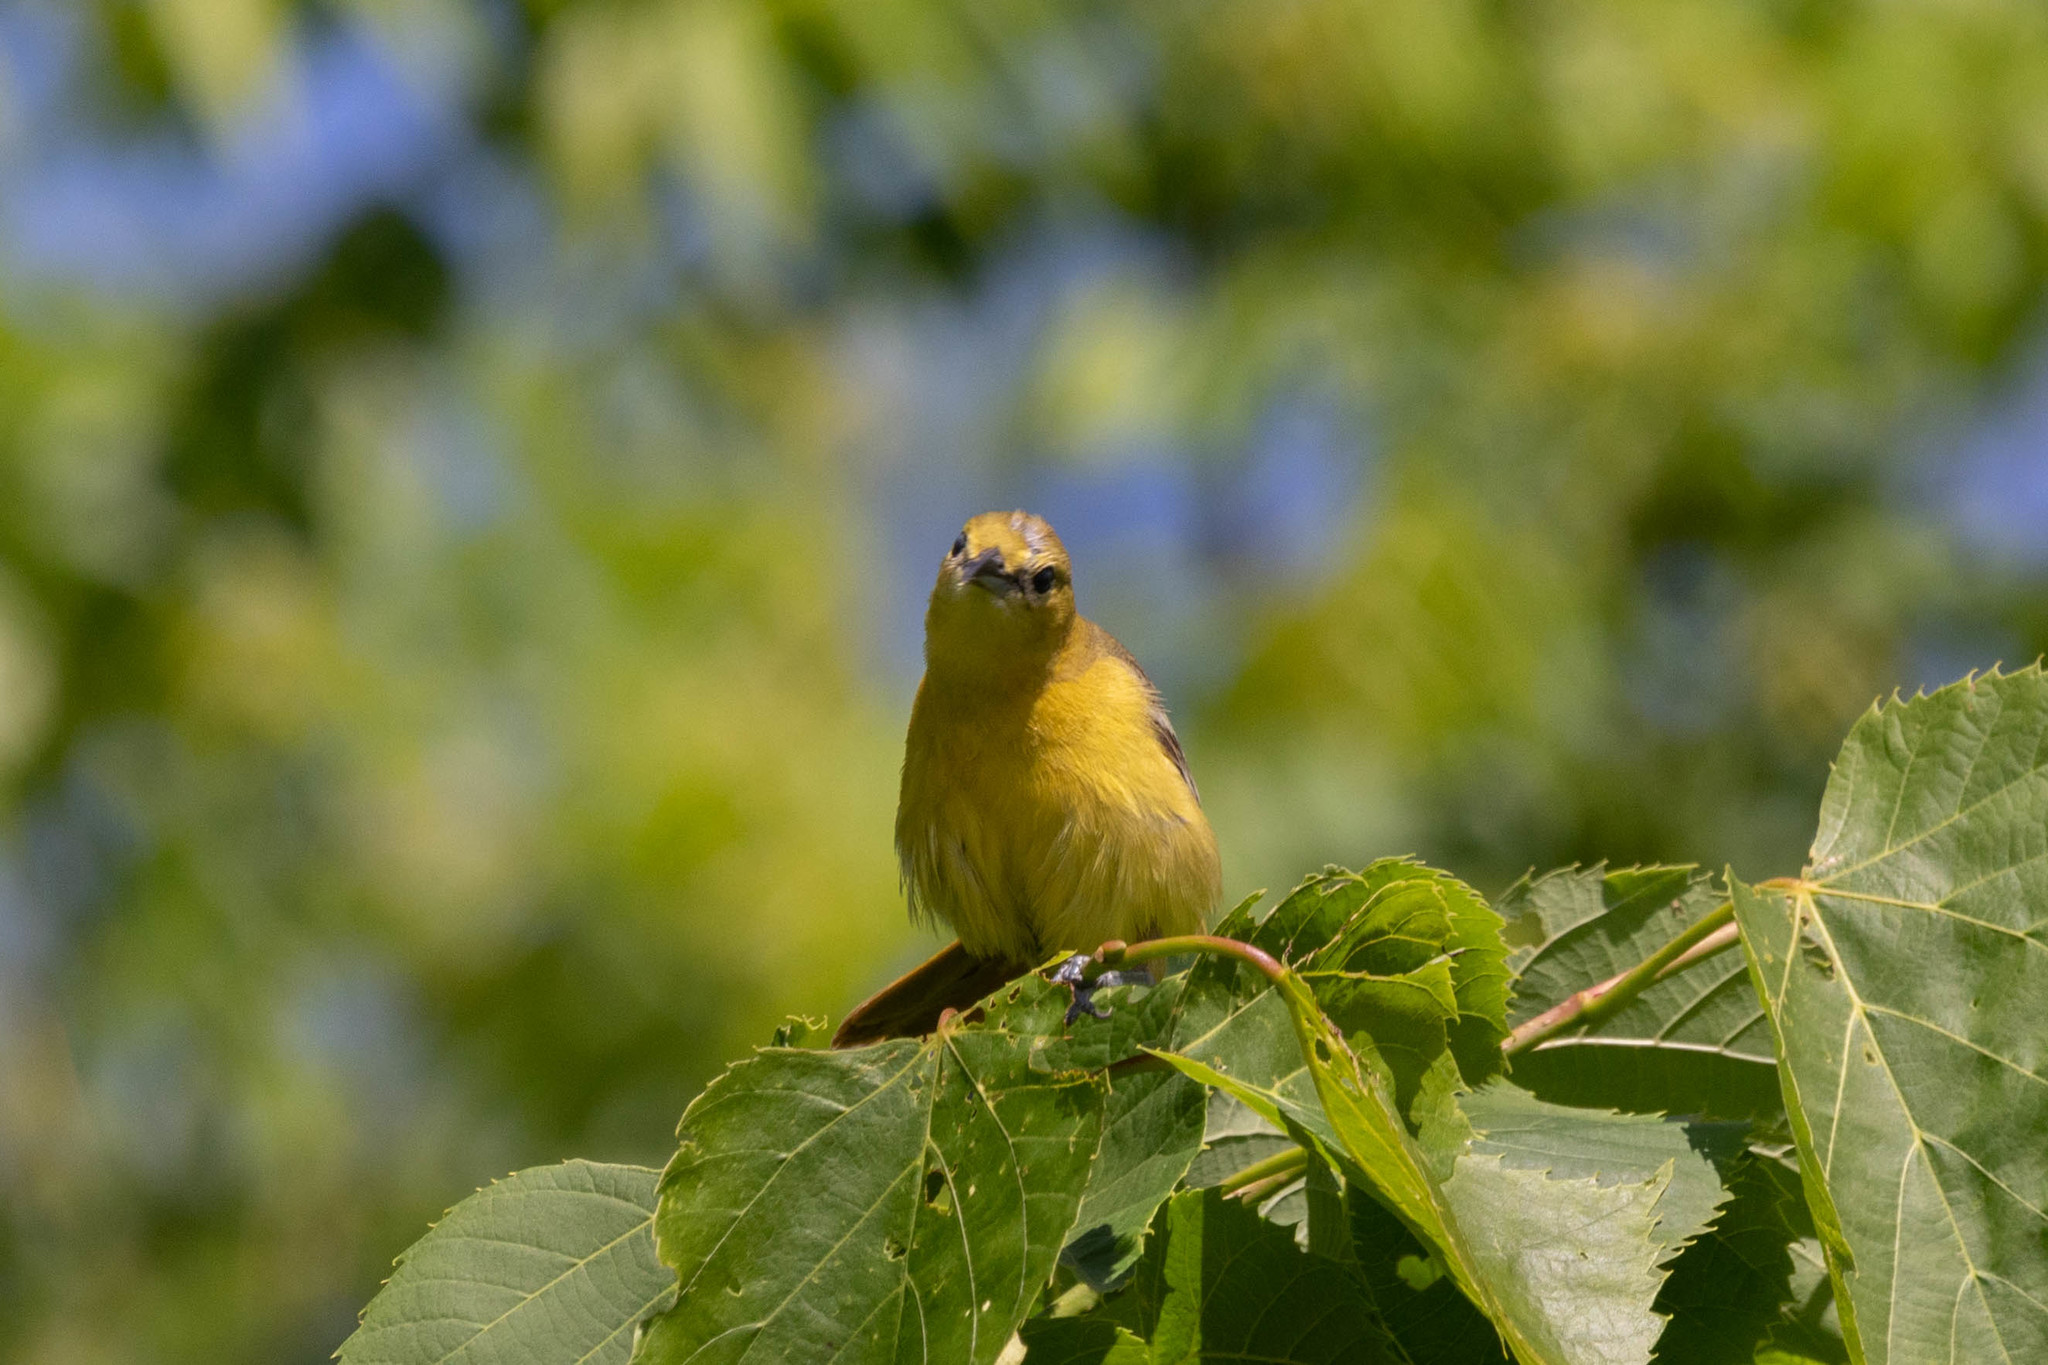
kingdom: Animalia
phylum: Chordata
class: Aves
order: Passeriformes
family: Icteridae
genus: Icterus
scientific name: Icterus spurius
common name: Orchard oriole
